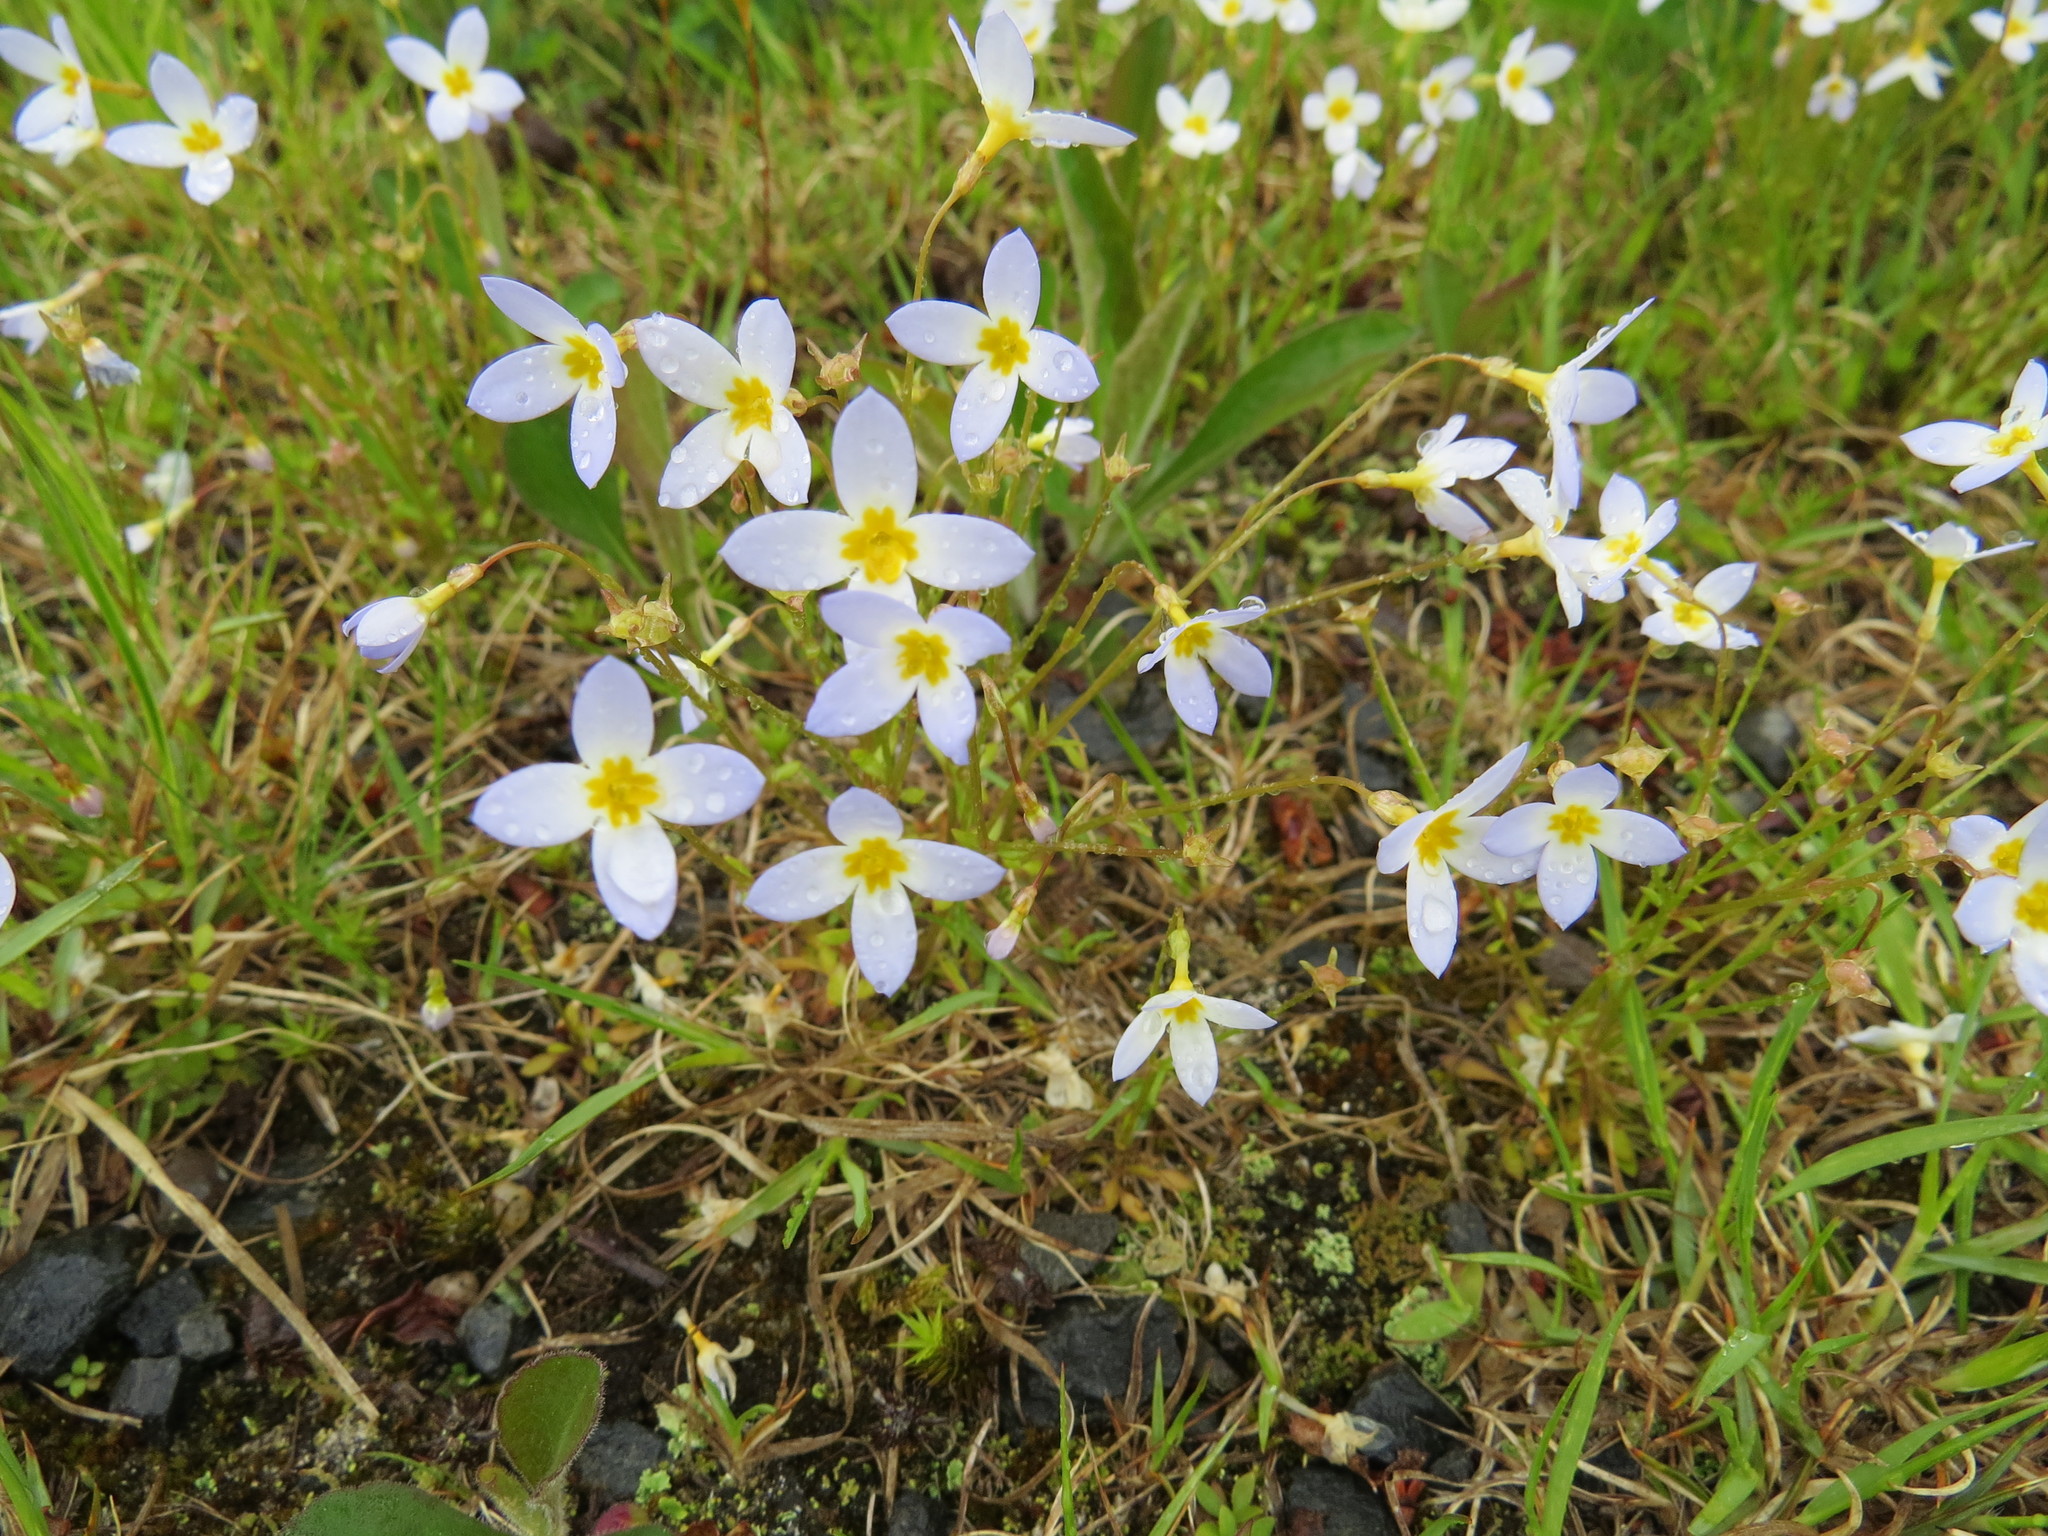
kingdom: Plantae
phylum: Tracheophyta
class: Magnoliopsida
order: Gentianales
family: Rubiaceae
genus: Houstonia
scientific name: Houstonia caerulea
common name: Bluets
